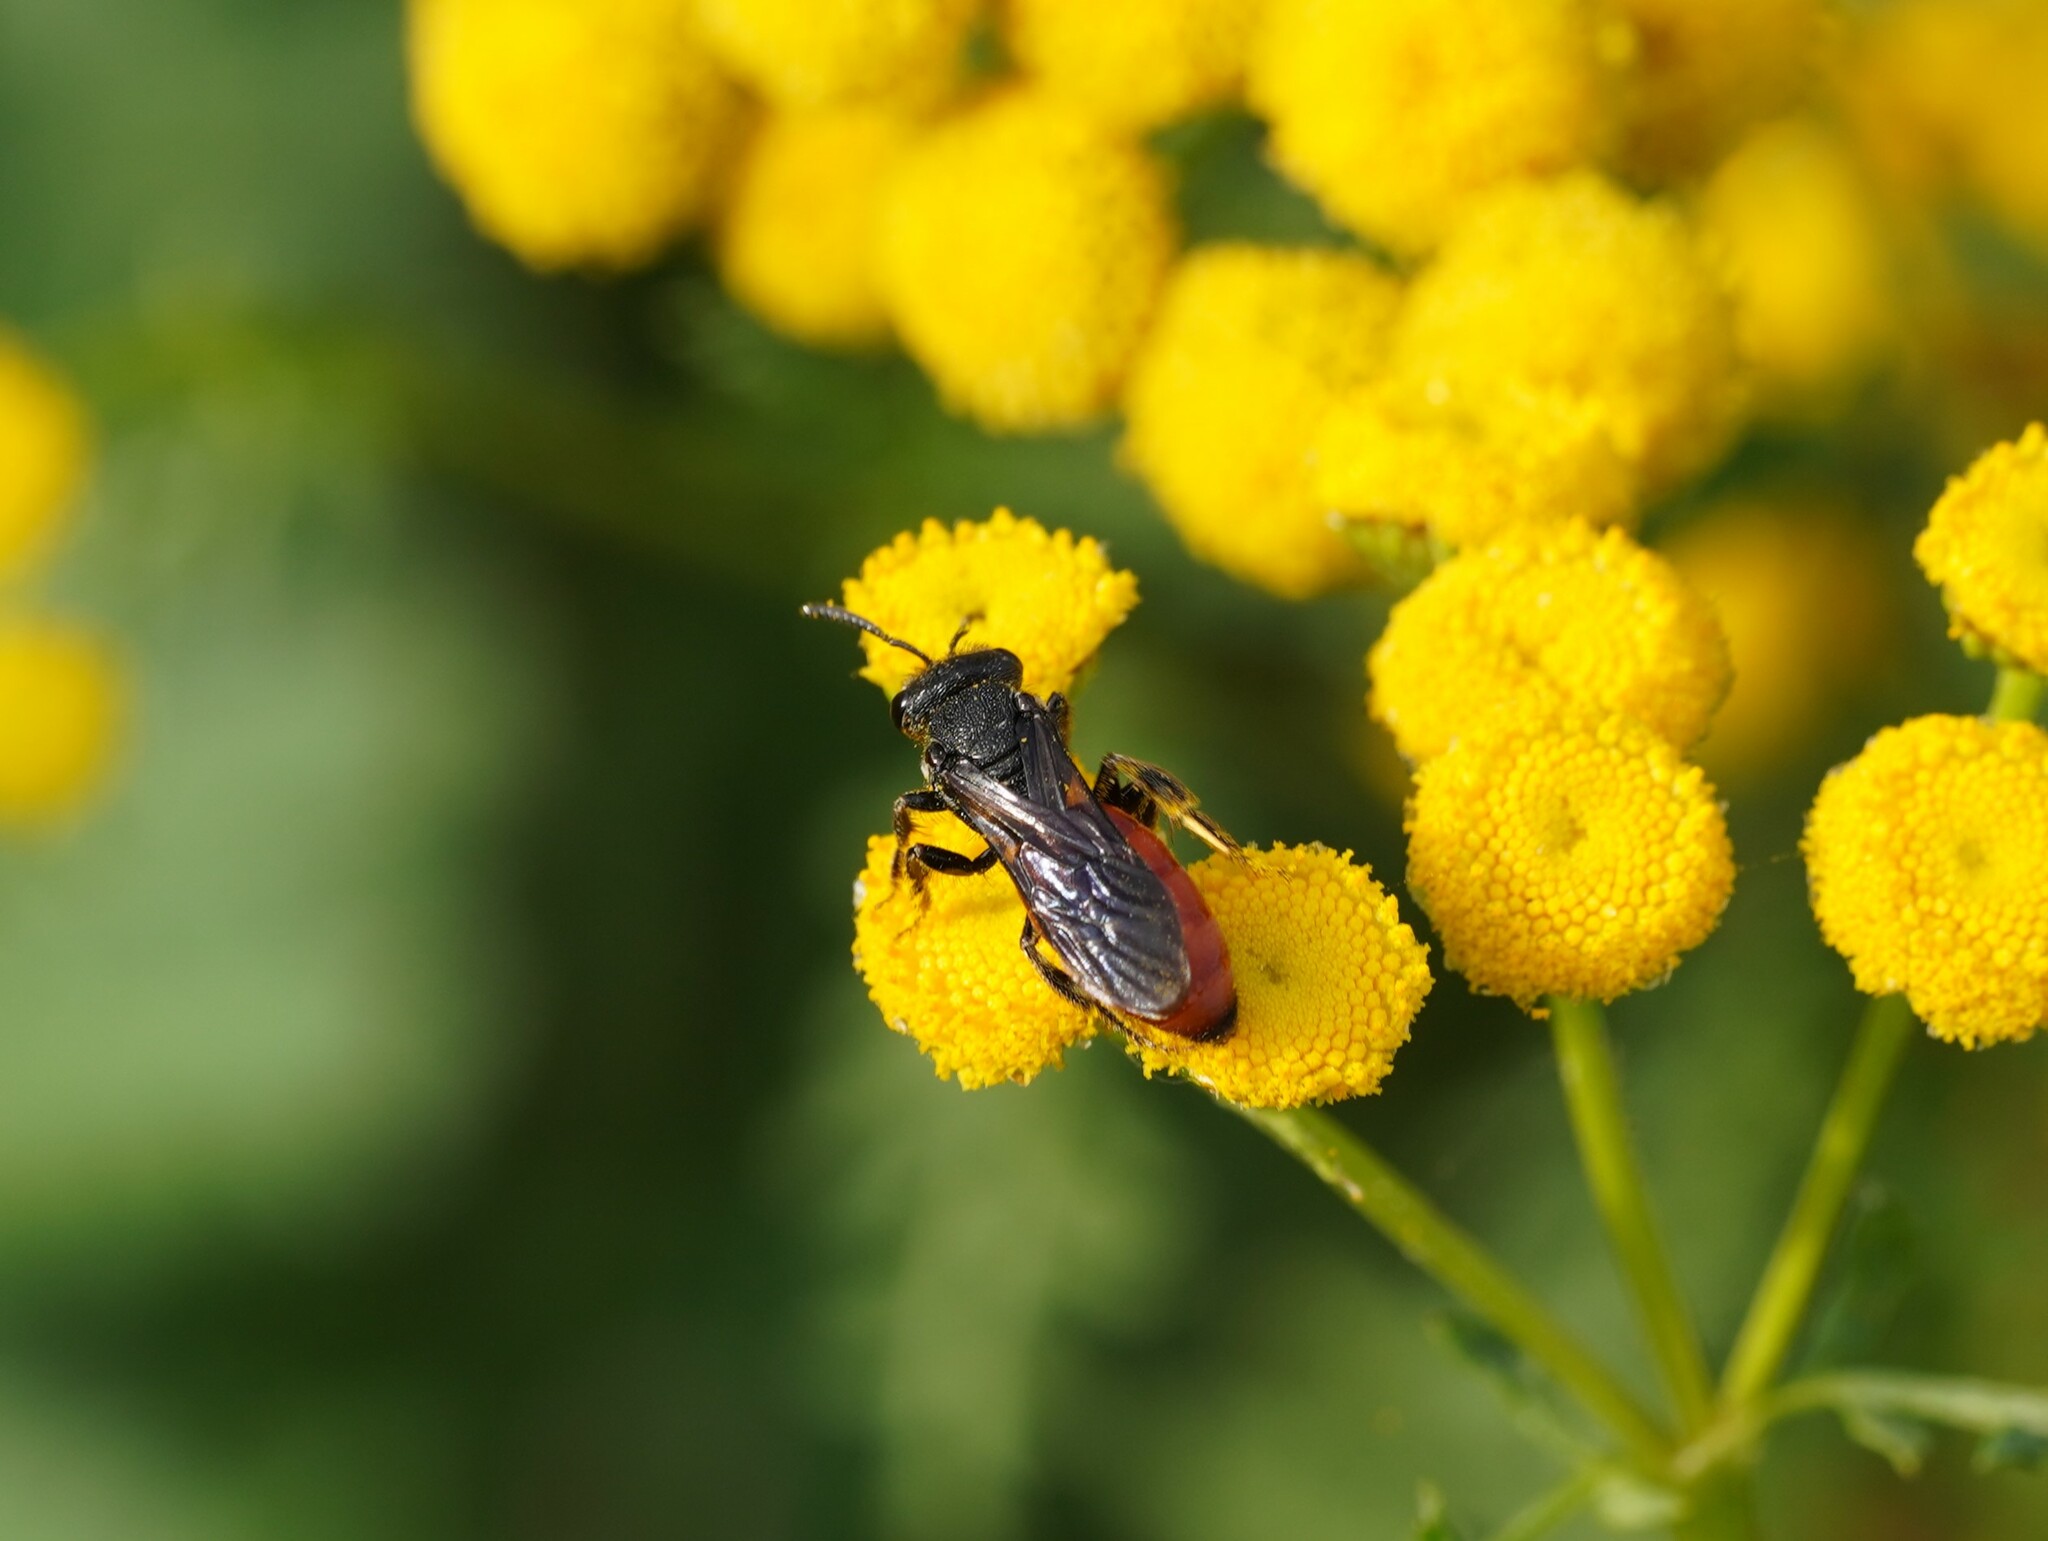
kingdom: Animalia
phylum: Arthropoda
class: Insecta
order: Hymenoptera
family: Halictidae
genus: Sphecodes
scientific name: Sphecodes albilabris
